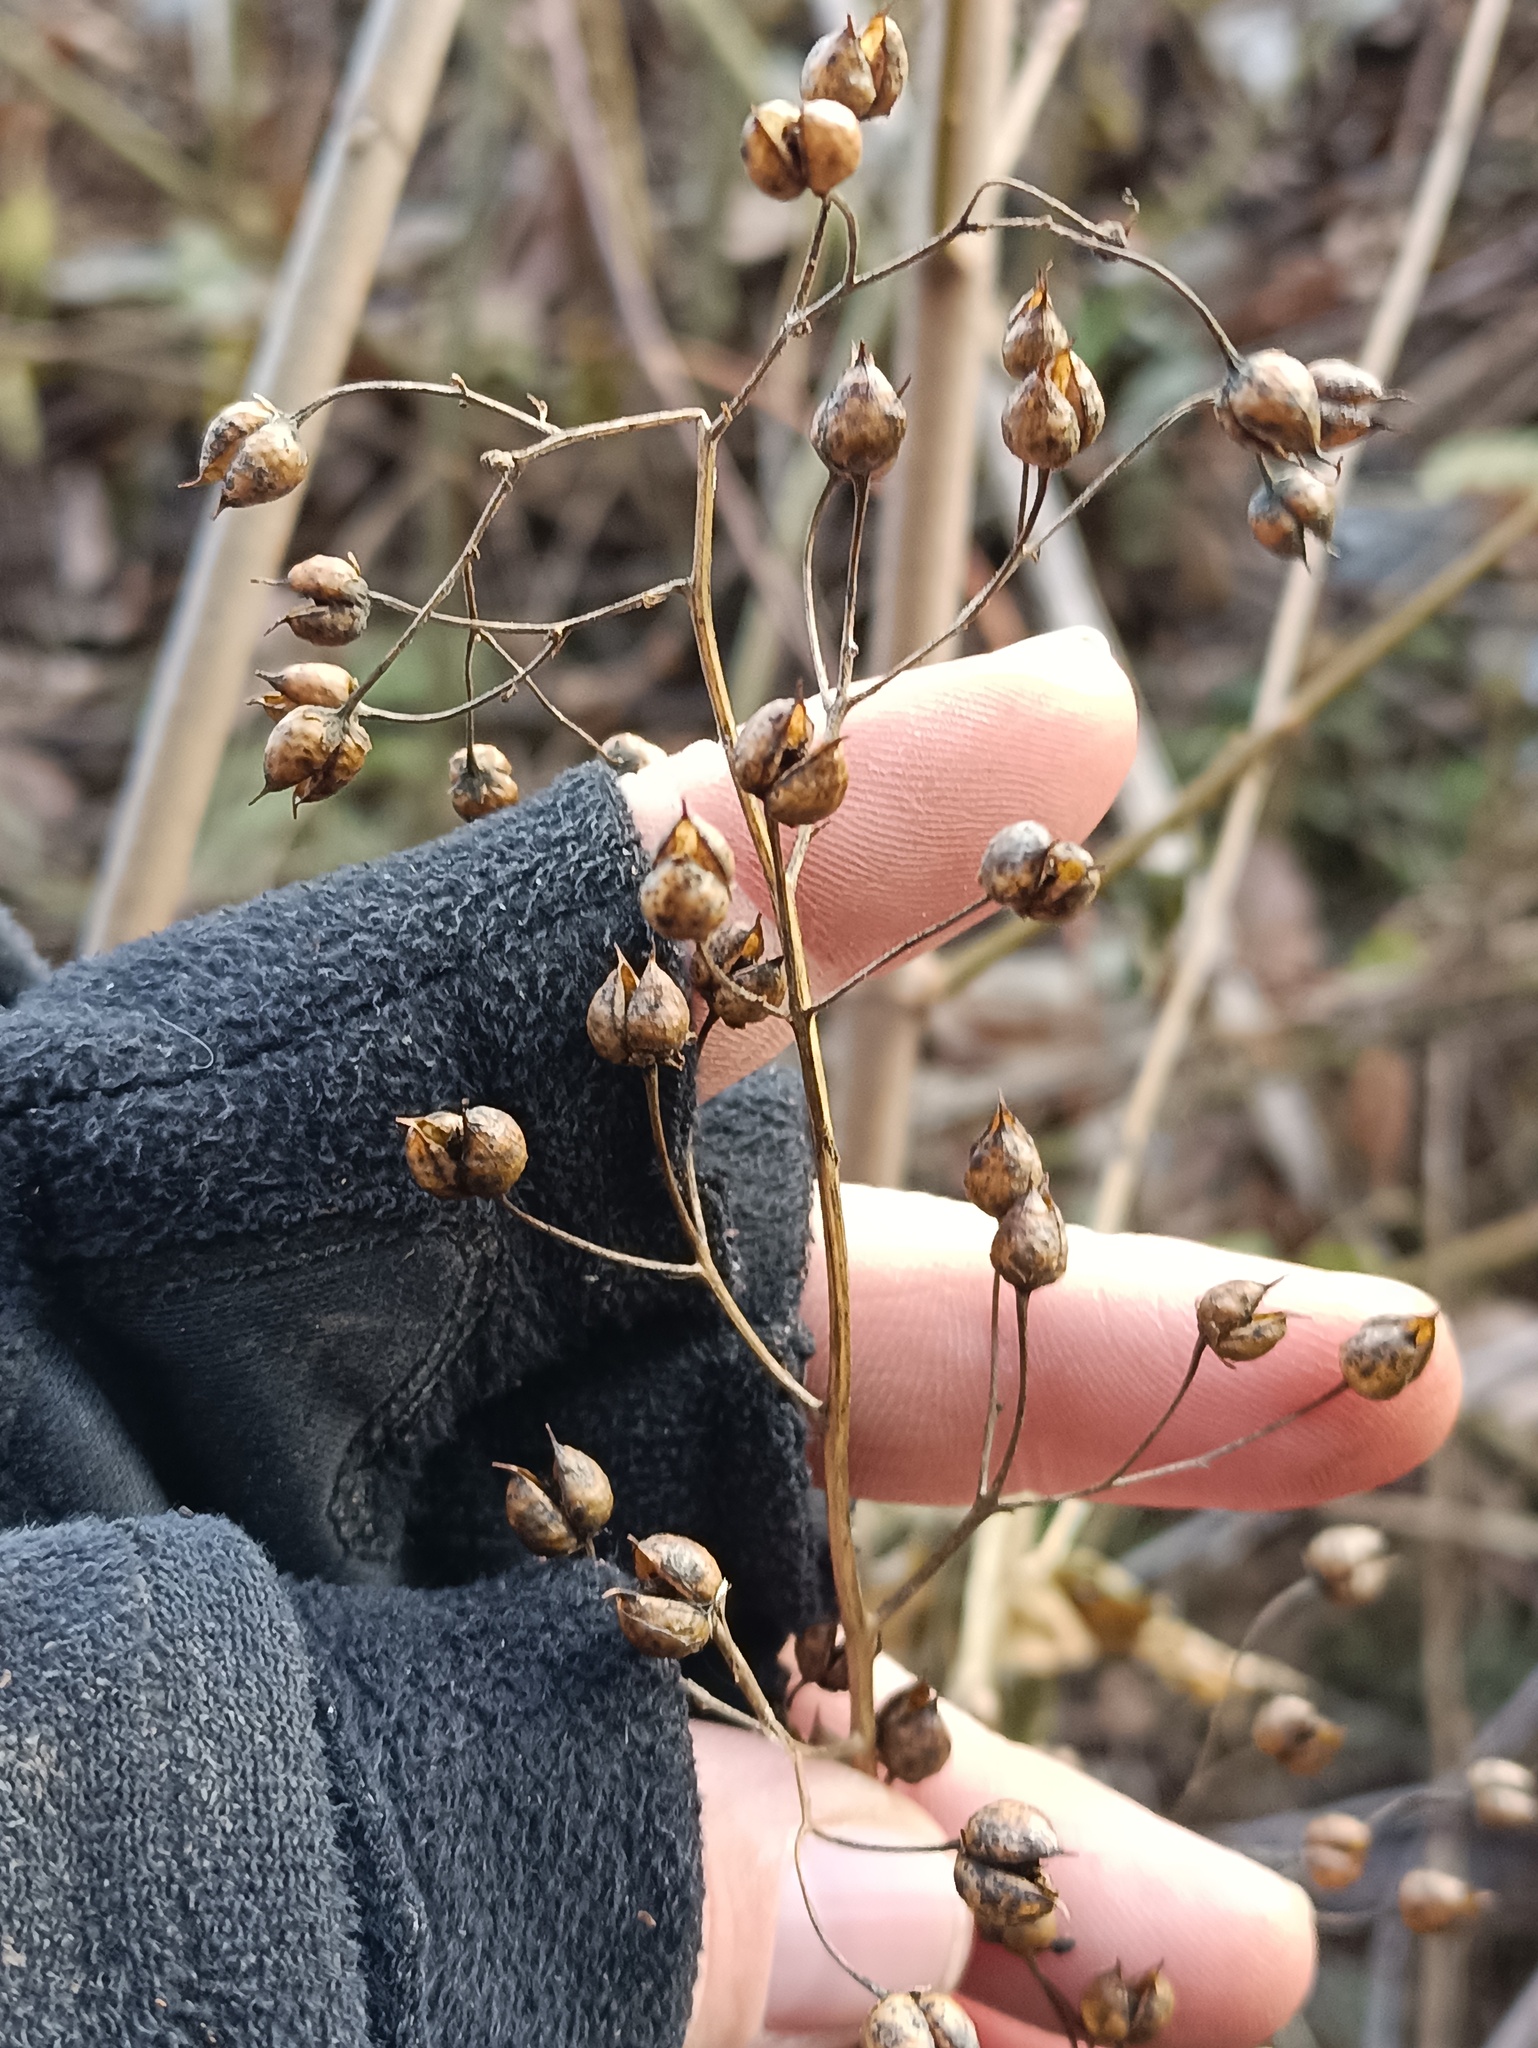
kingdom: Plantae
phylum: Tracheophyta
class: Magnoliopsida
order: Lamiales
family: Scrophulariaceae
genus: Scrophularia
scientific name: Scrophularia nodosa
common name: Common figwort
